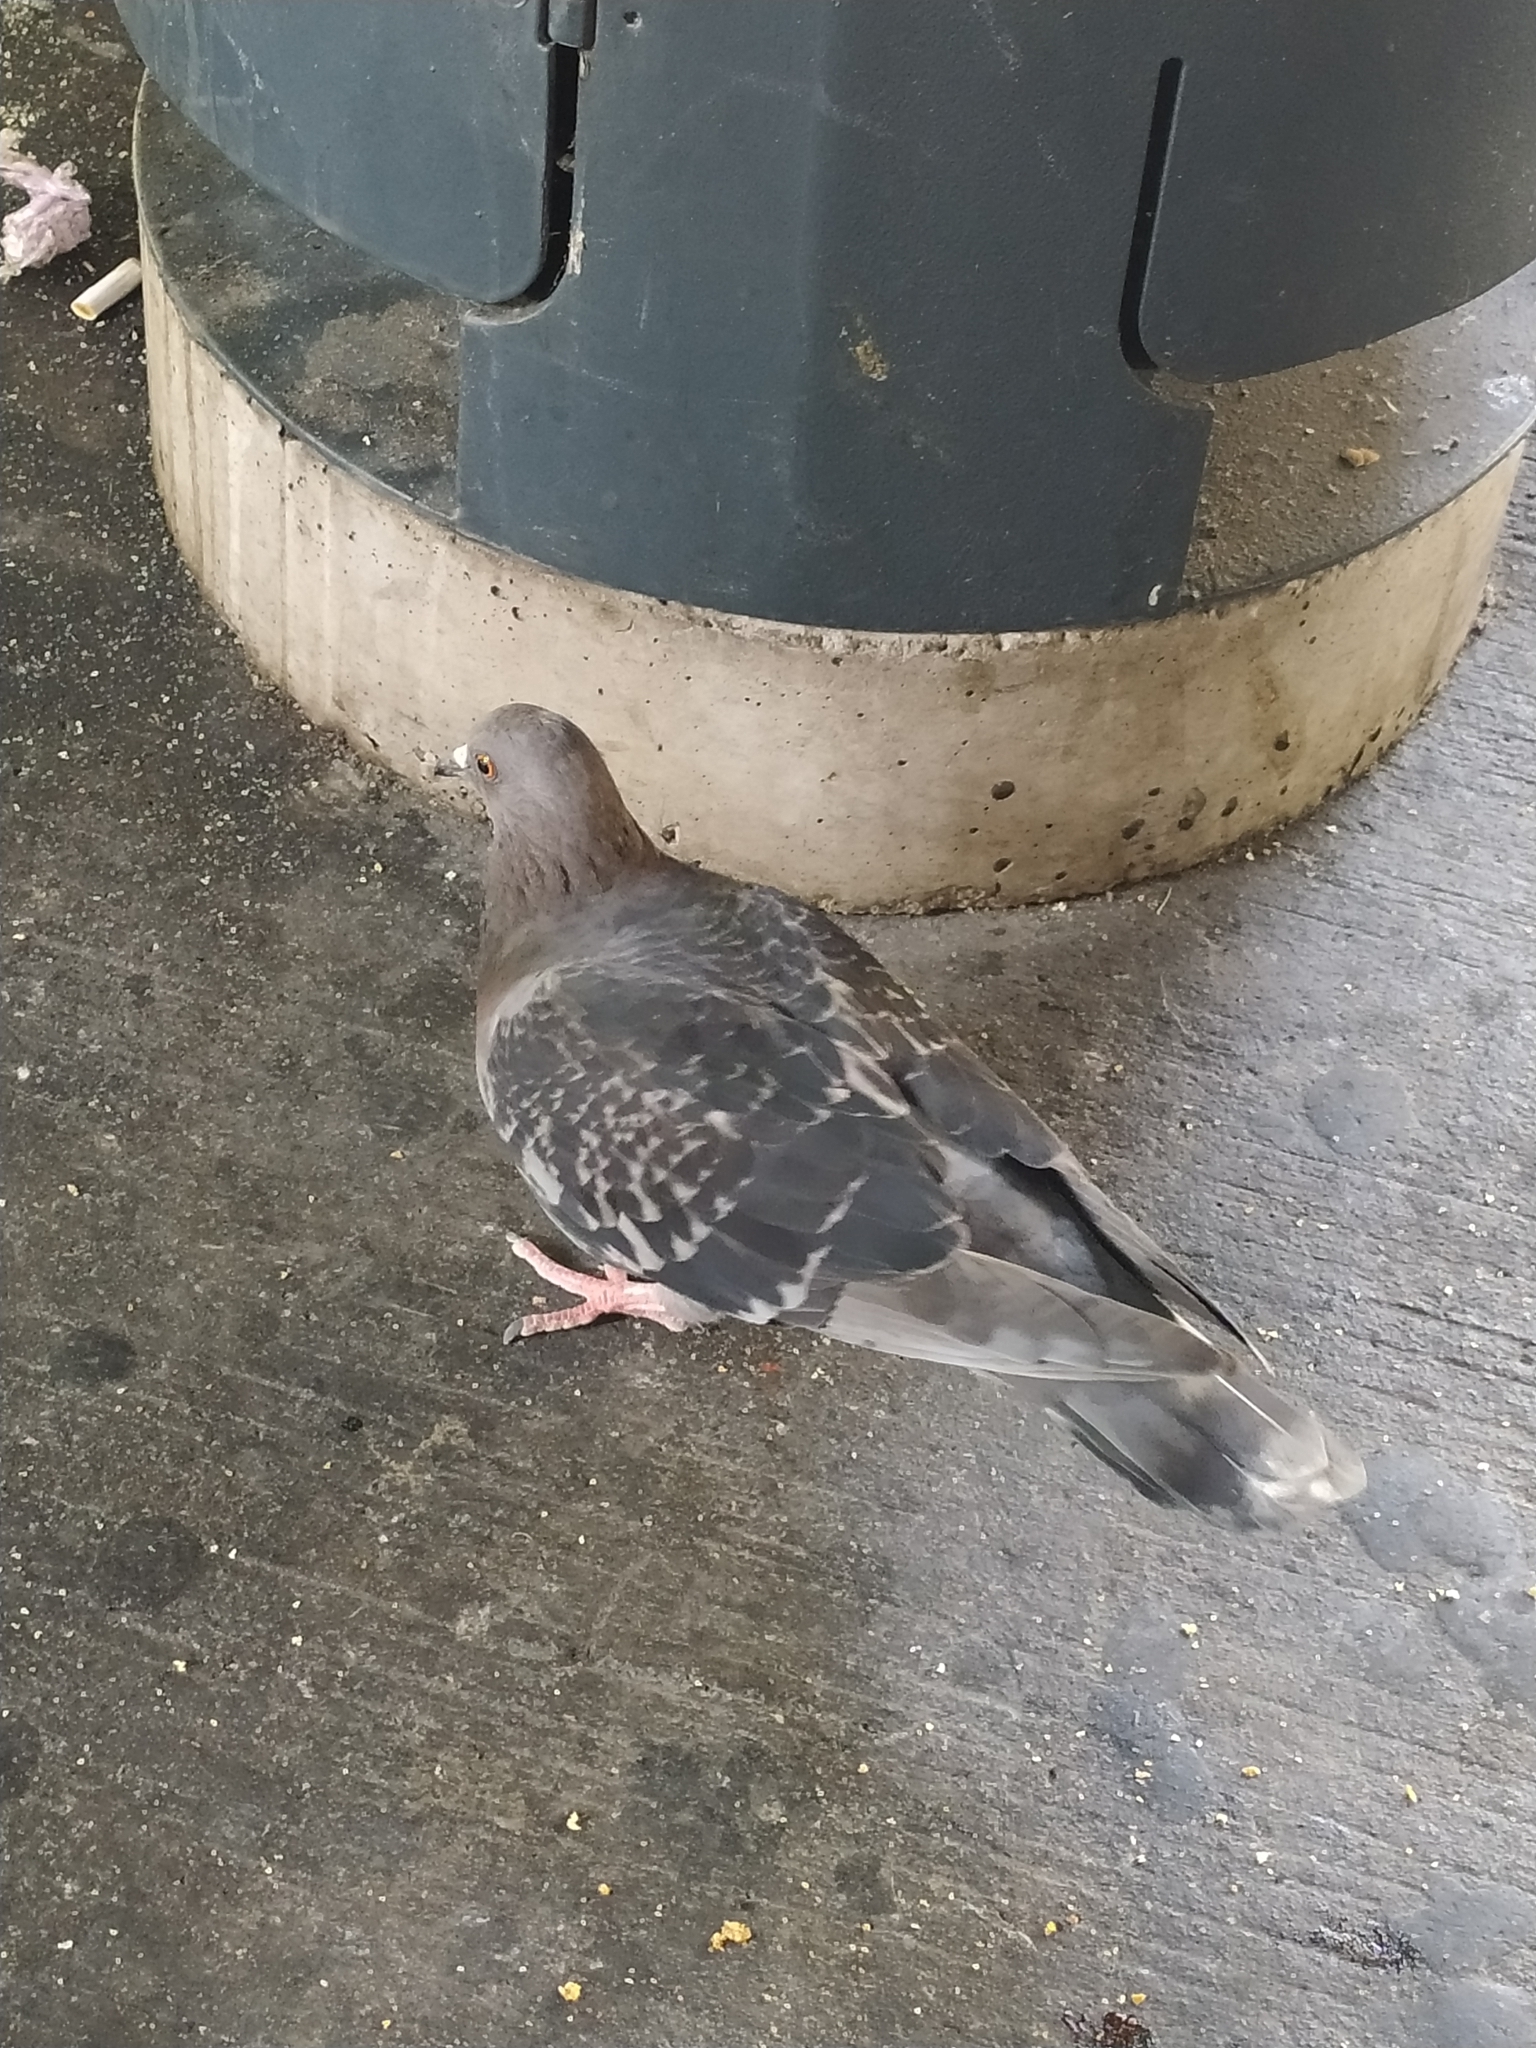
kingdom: Animalia
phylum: Chordata
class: Aves
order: Columbiformes
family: Columbidae
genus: Columba
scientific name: Columba livia
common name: Rock pigeon
